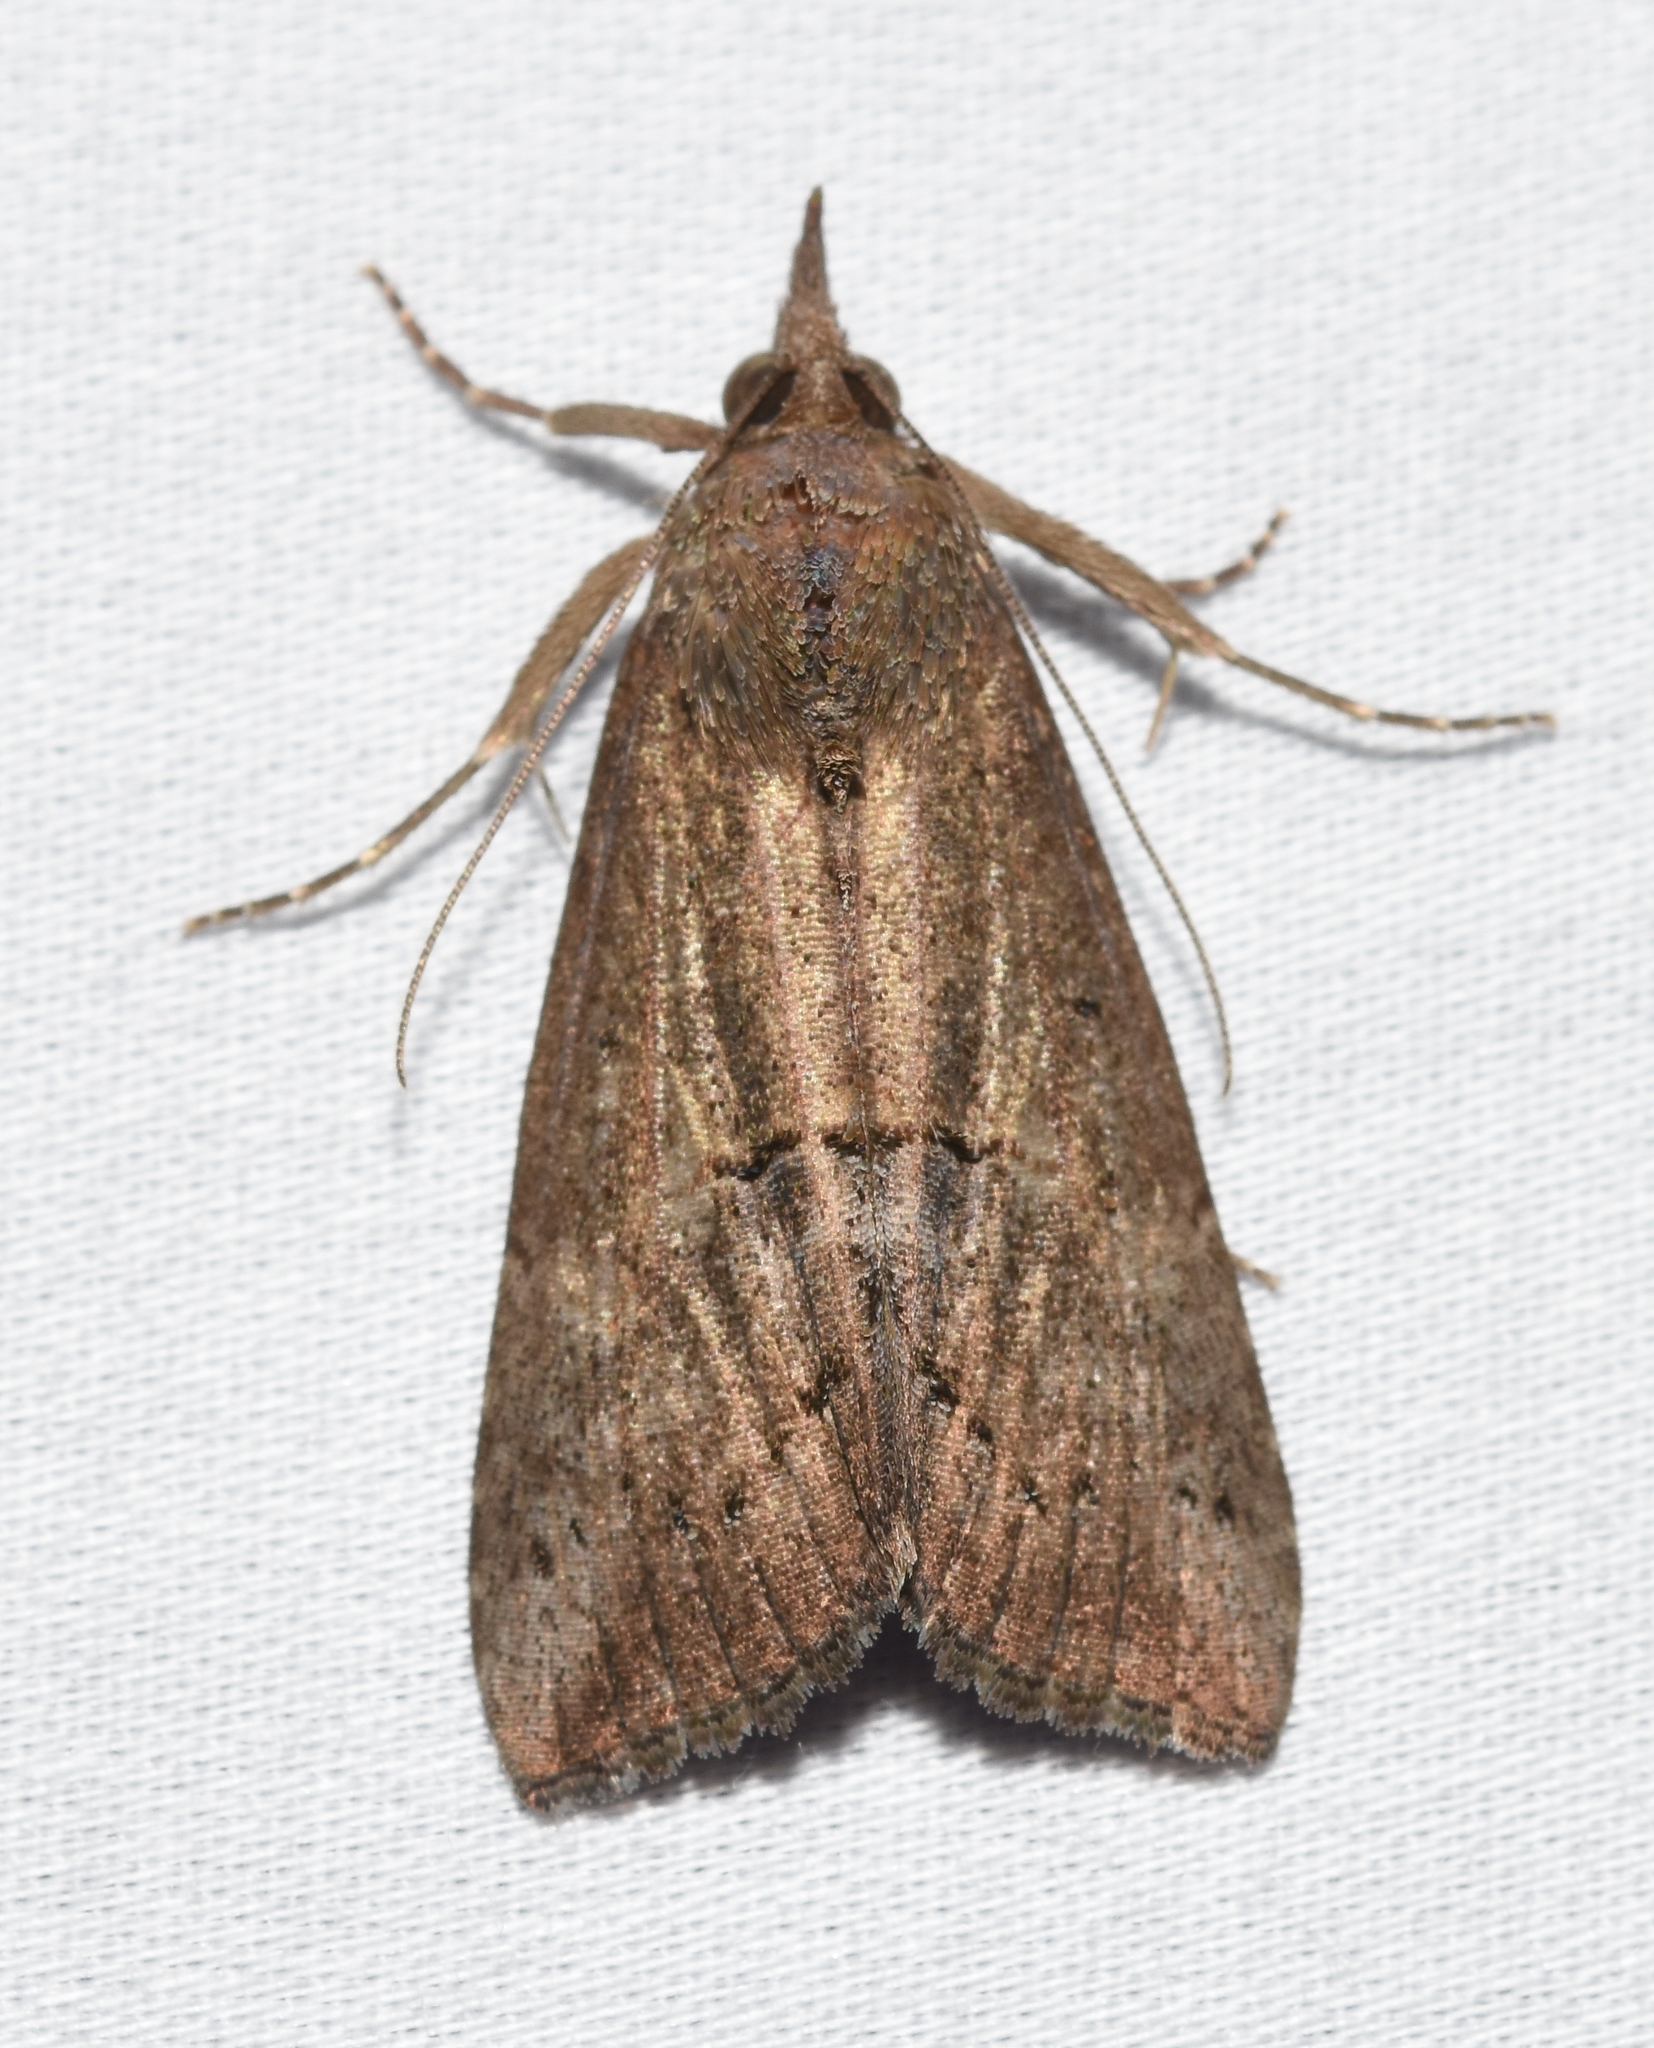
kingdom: Animalia
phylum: Arthropoda
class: Insecta
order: Lepidoptera
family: Erebidae
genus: Hypena
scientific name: Hypena scabra
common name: Green cloverworm
